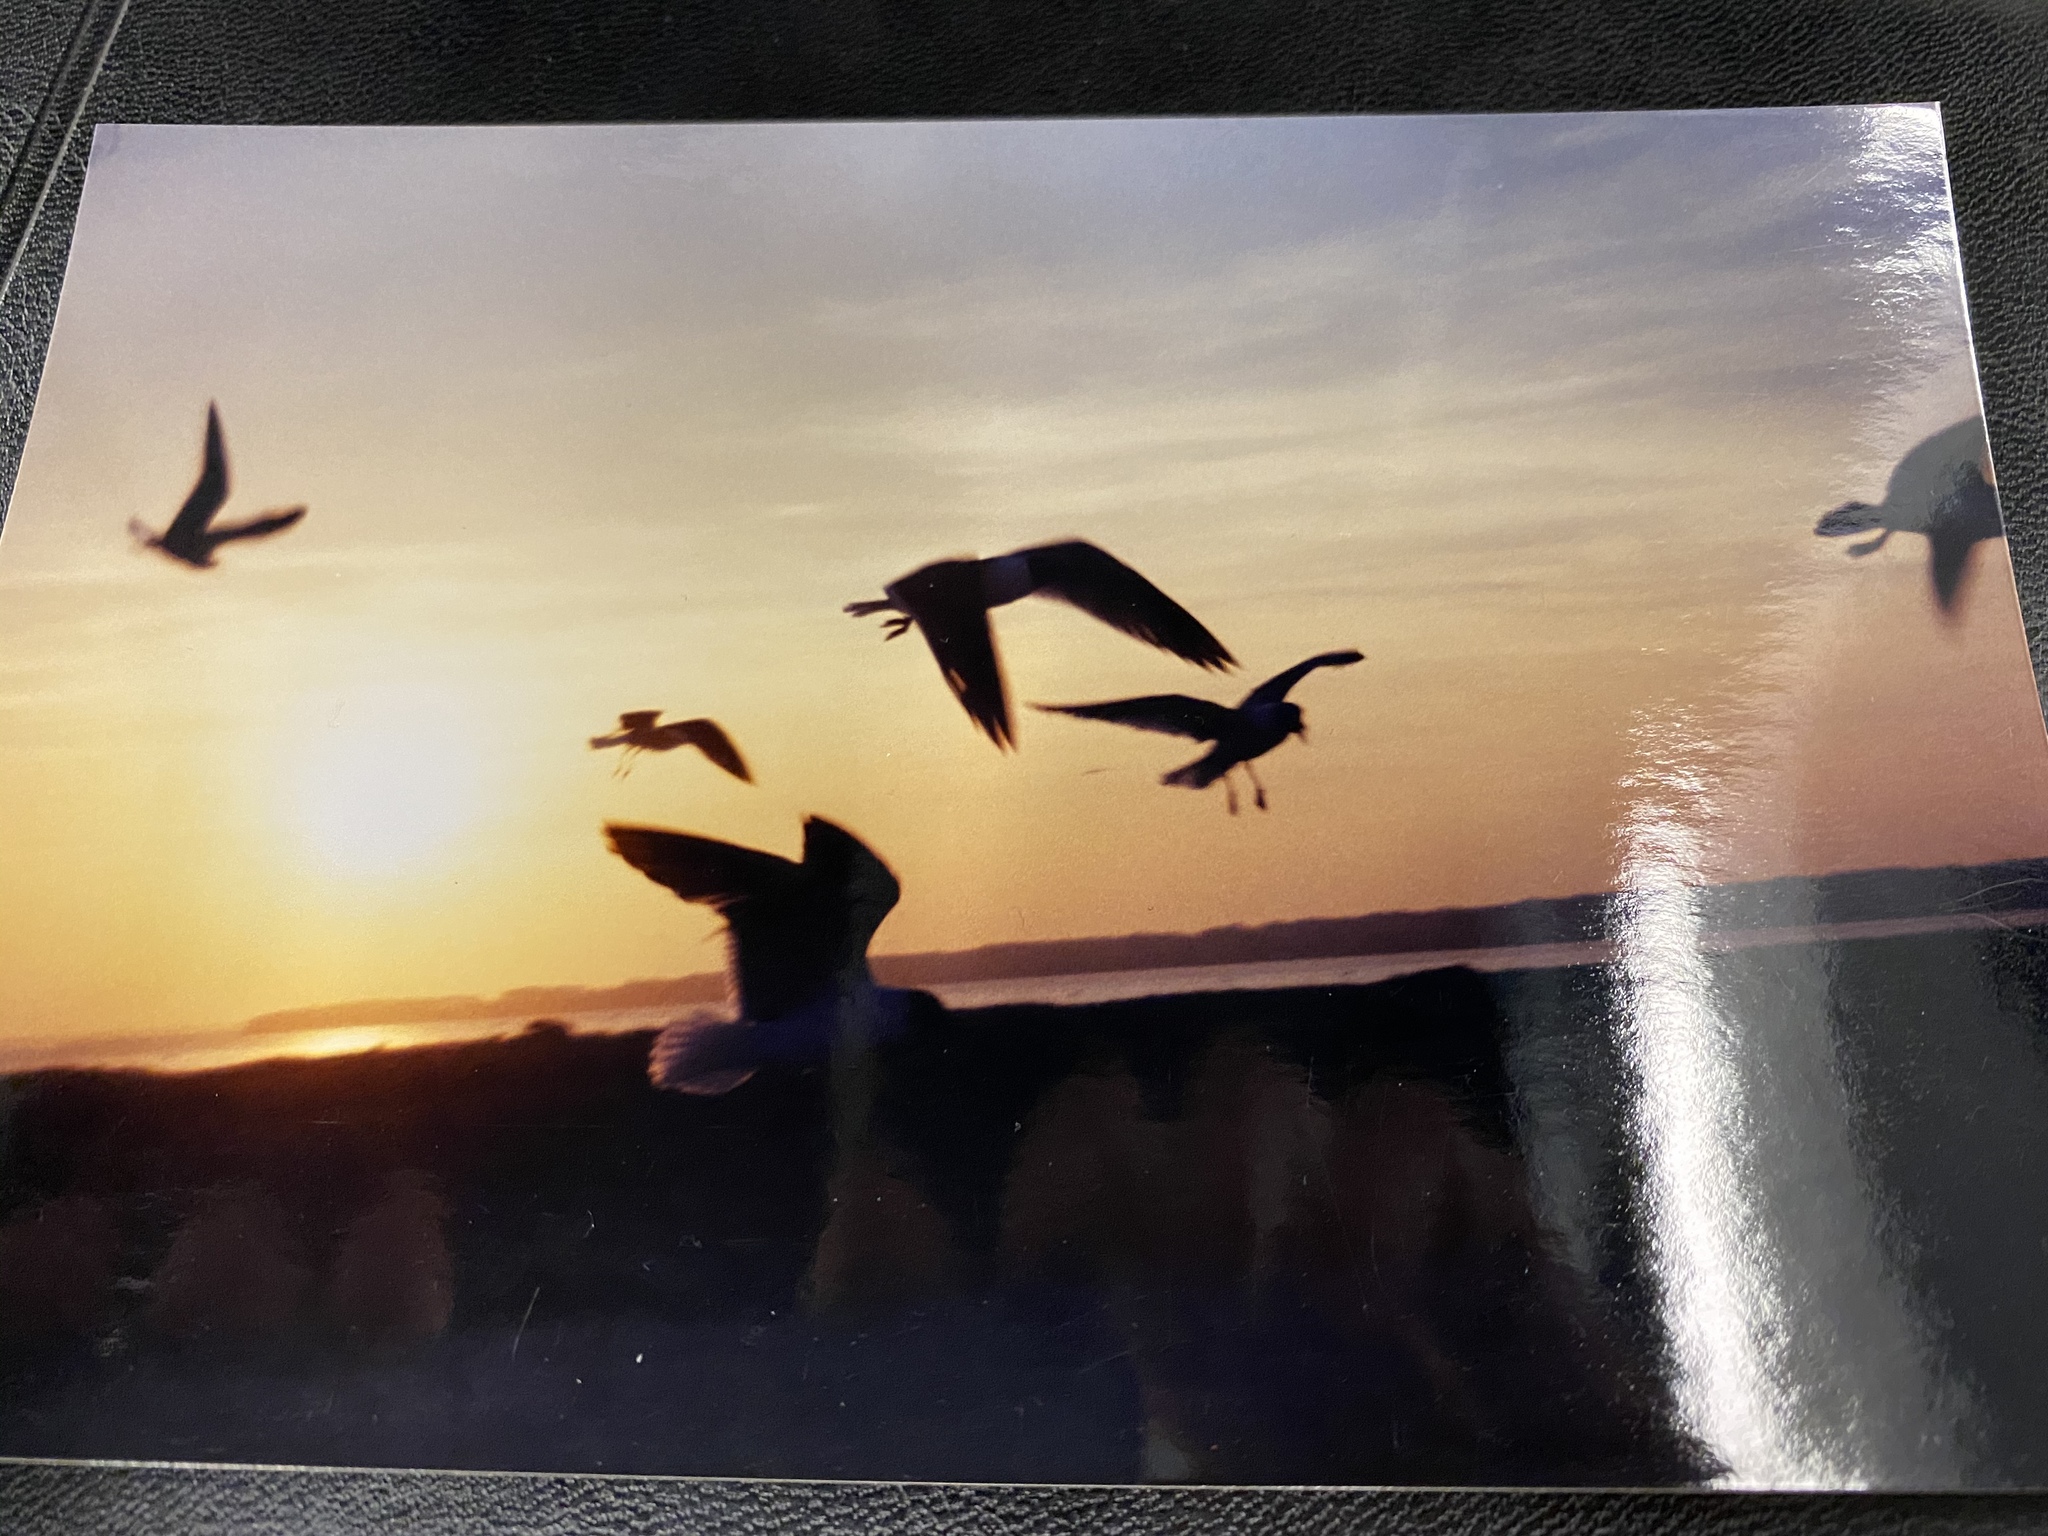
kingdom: Animalia
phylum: Chordata
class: Aves
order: Charadriiformes
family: Laridae
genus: Leucophaeus
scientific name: Leucophaeus atricilla
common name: Laughing gull
